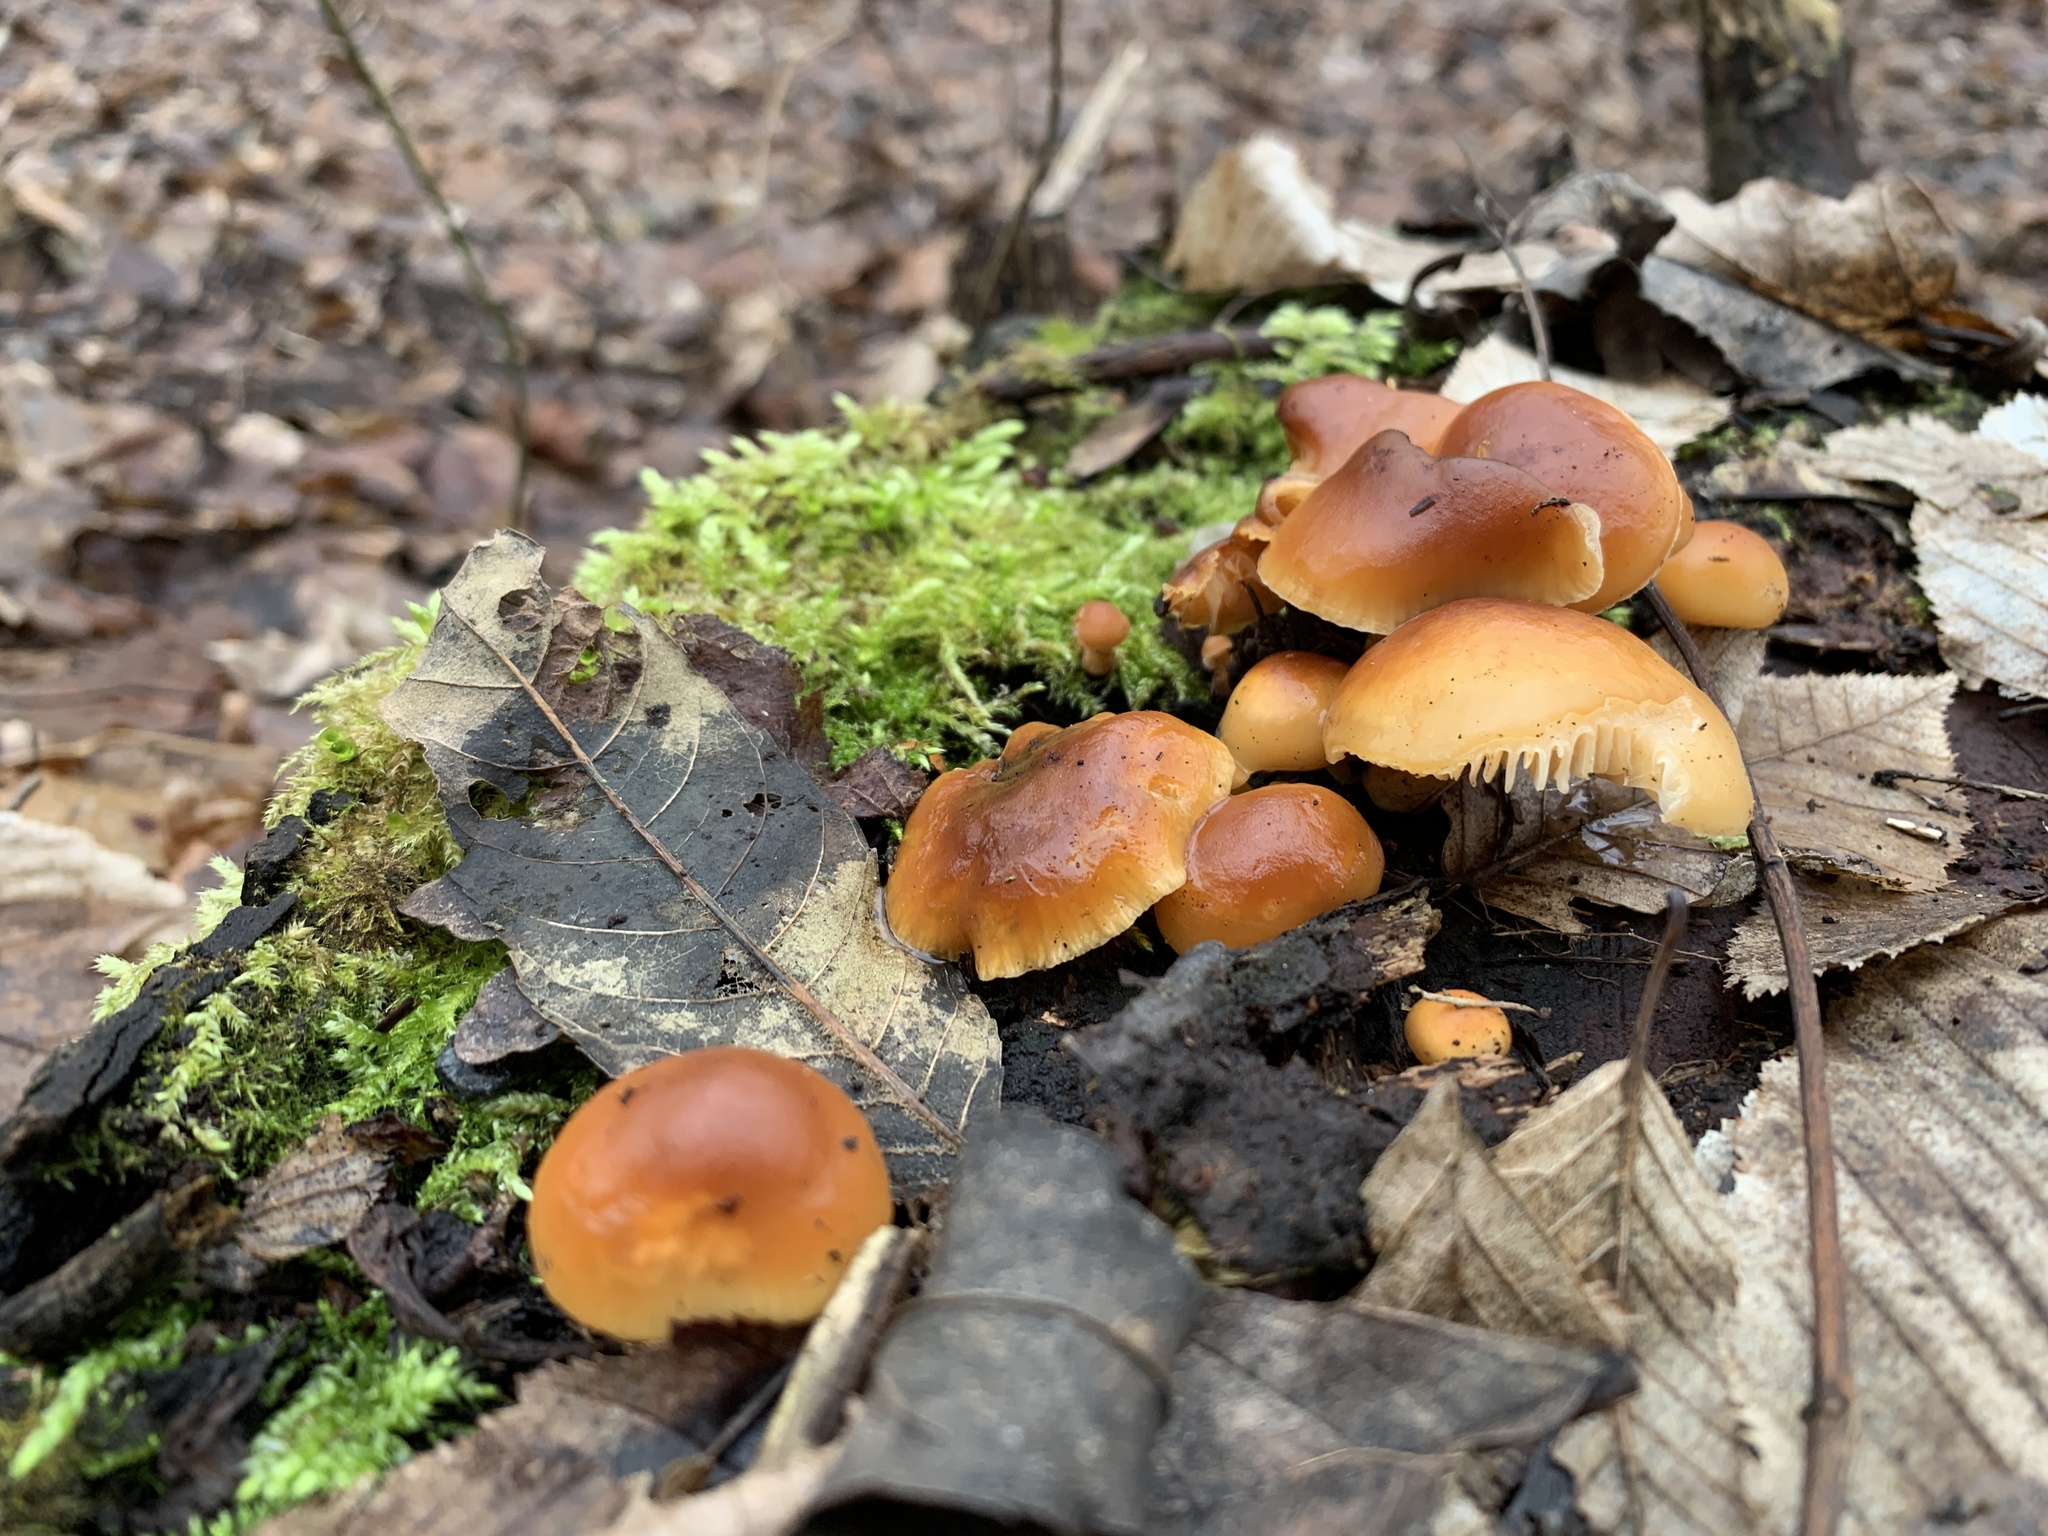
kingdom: Fungi
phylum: Basidiomycota
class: Agaricomycetes
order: Agaricales
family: Physalacriaceae
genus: Flammulina
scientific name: Flammulina
